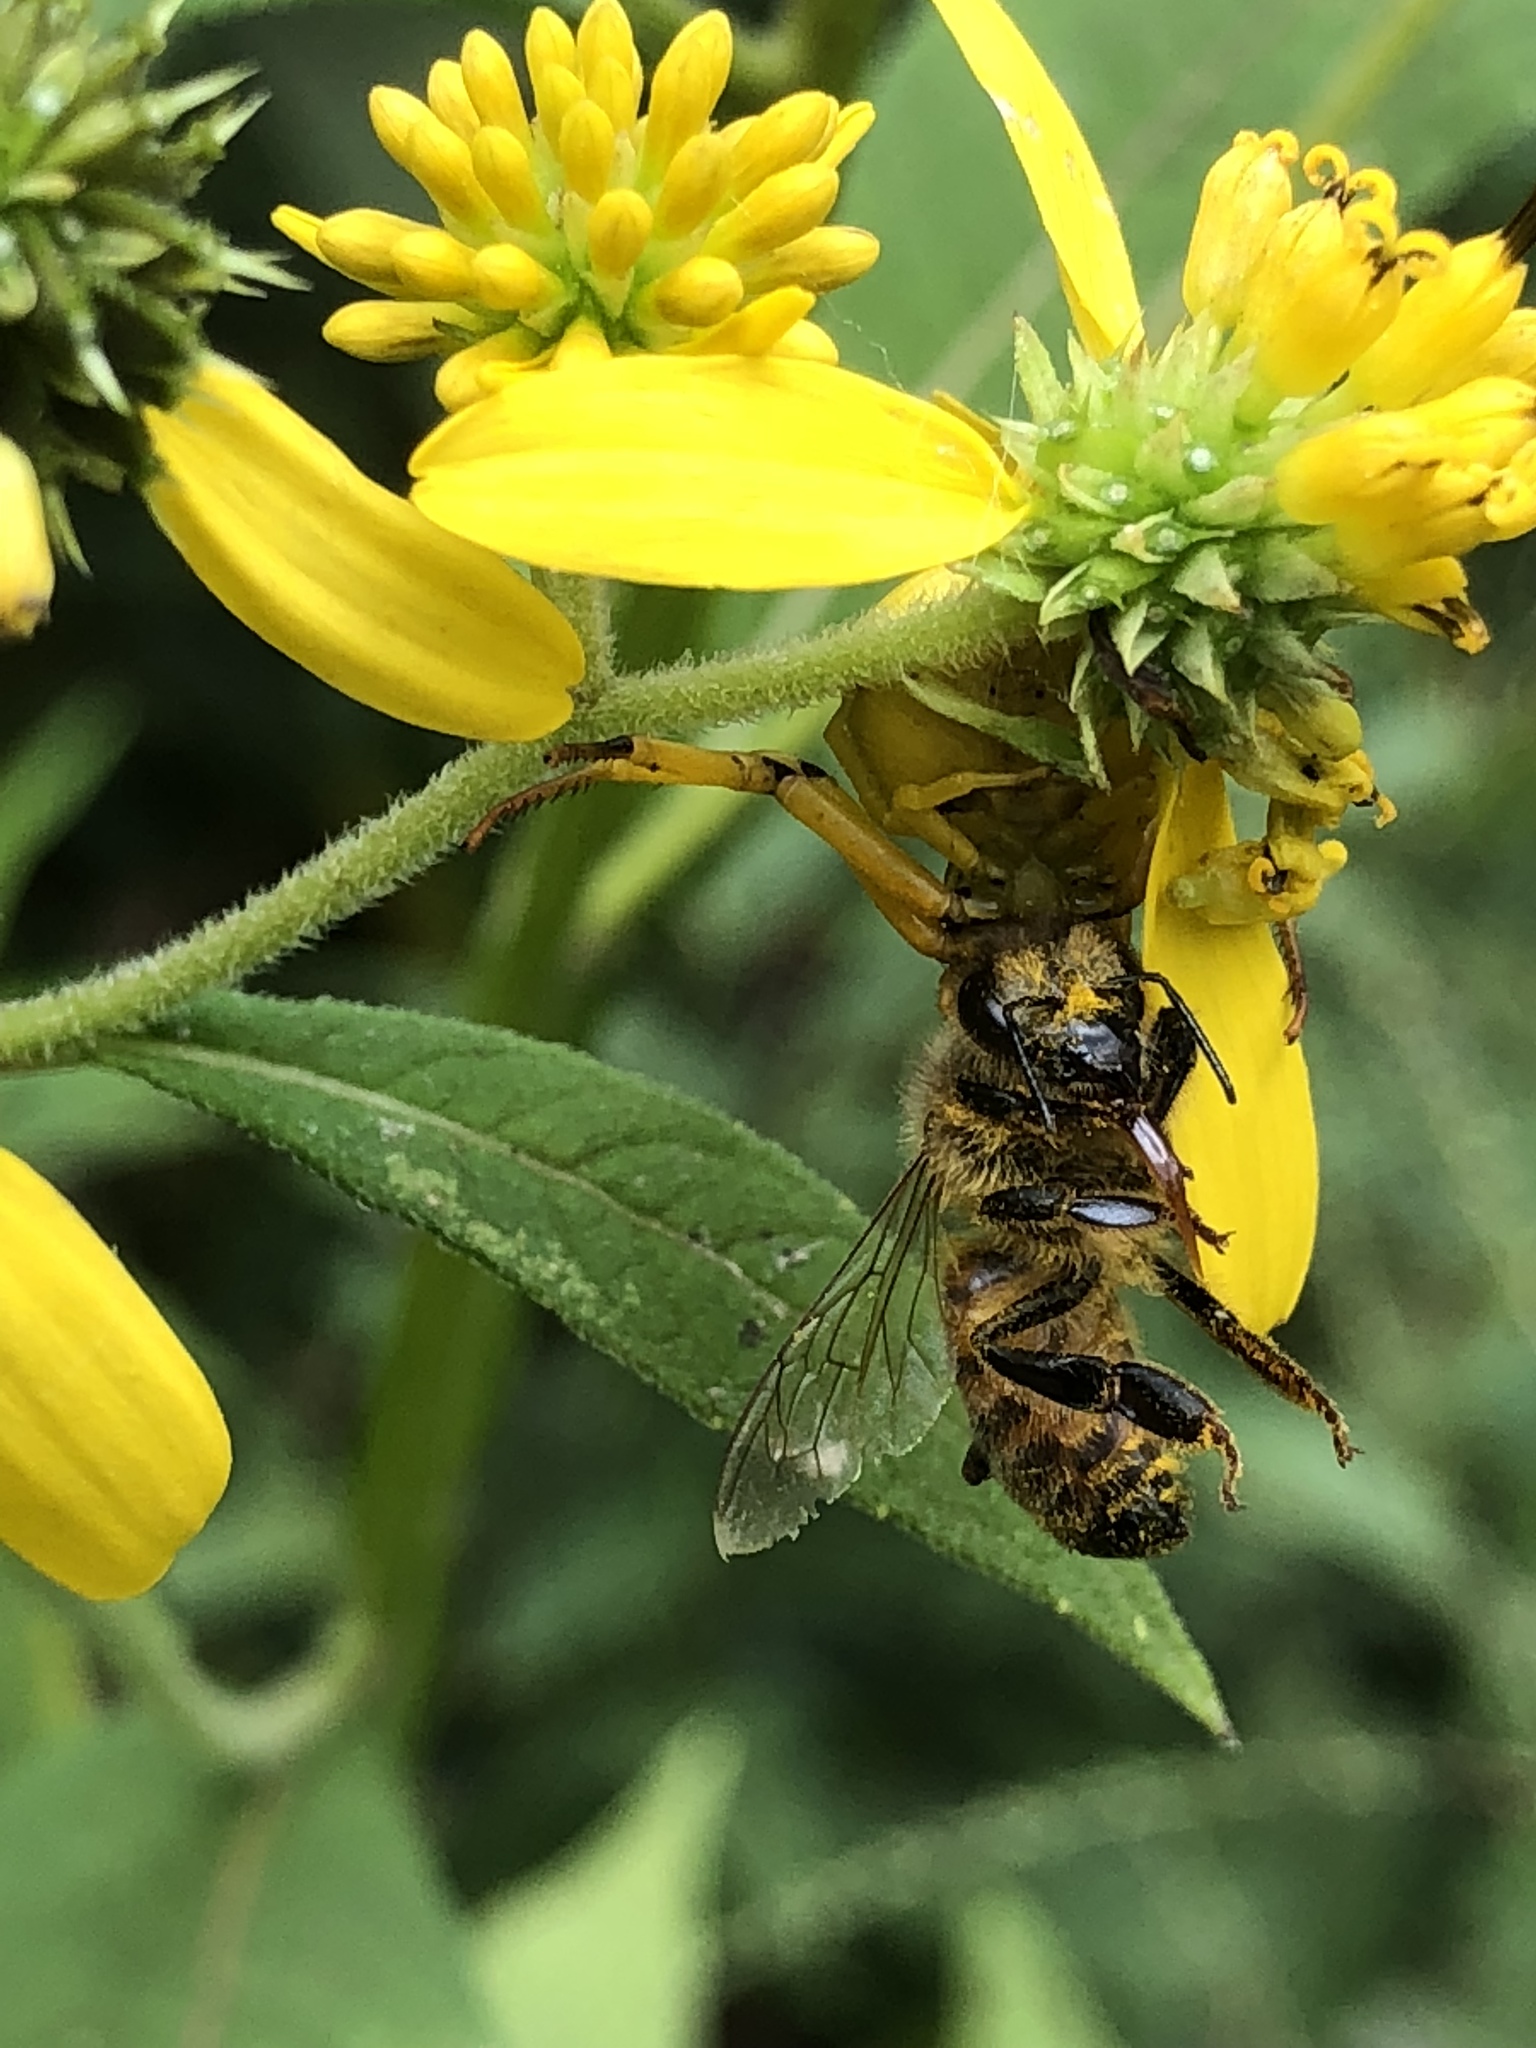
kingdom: Animalia
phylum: Arthropoda
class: Arachnida
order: Araneae
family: Thomisidae
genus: Misumenoides
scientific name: Misumenoides formosipes
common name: White-banded crab spider
